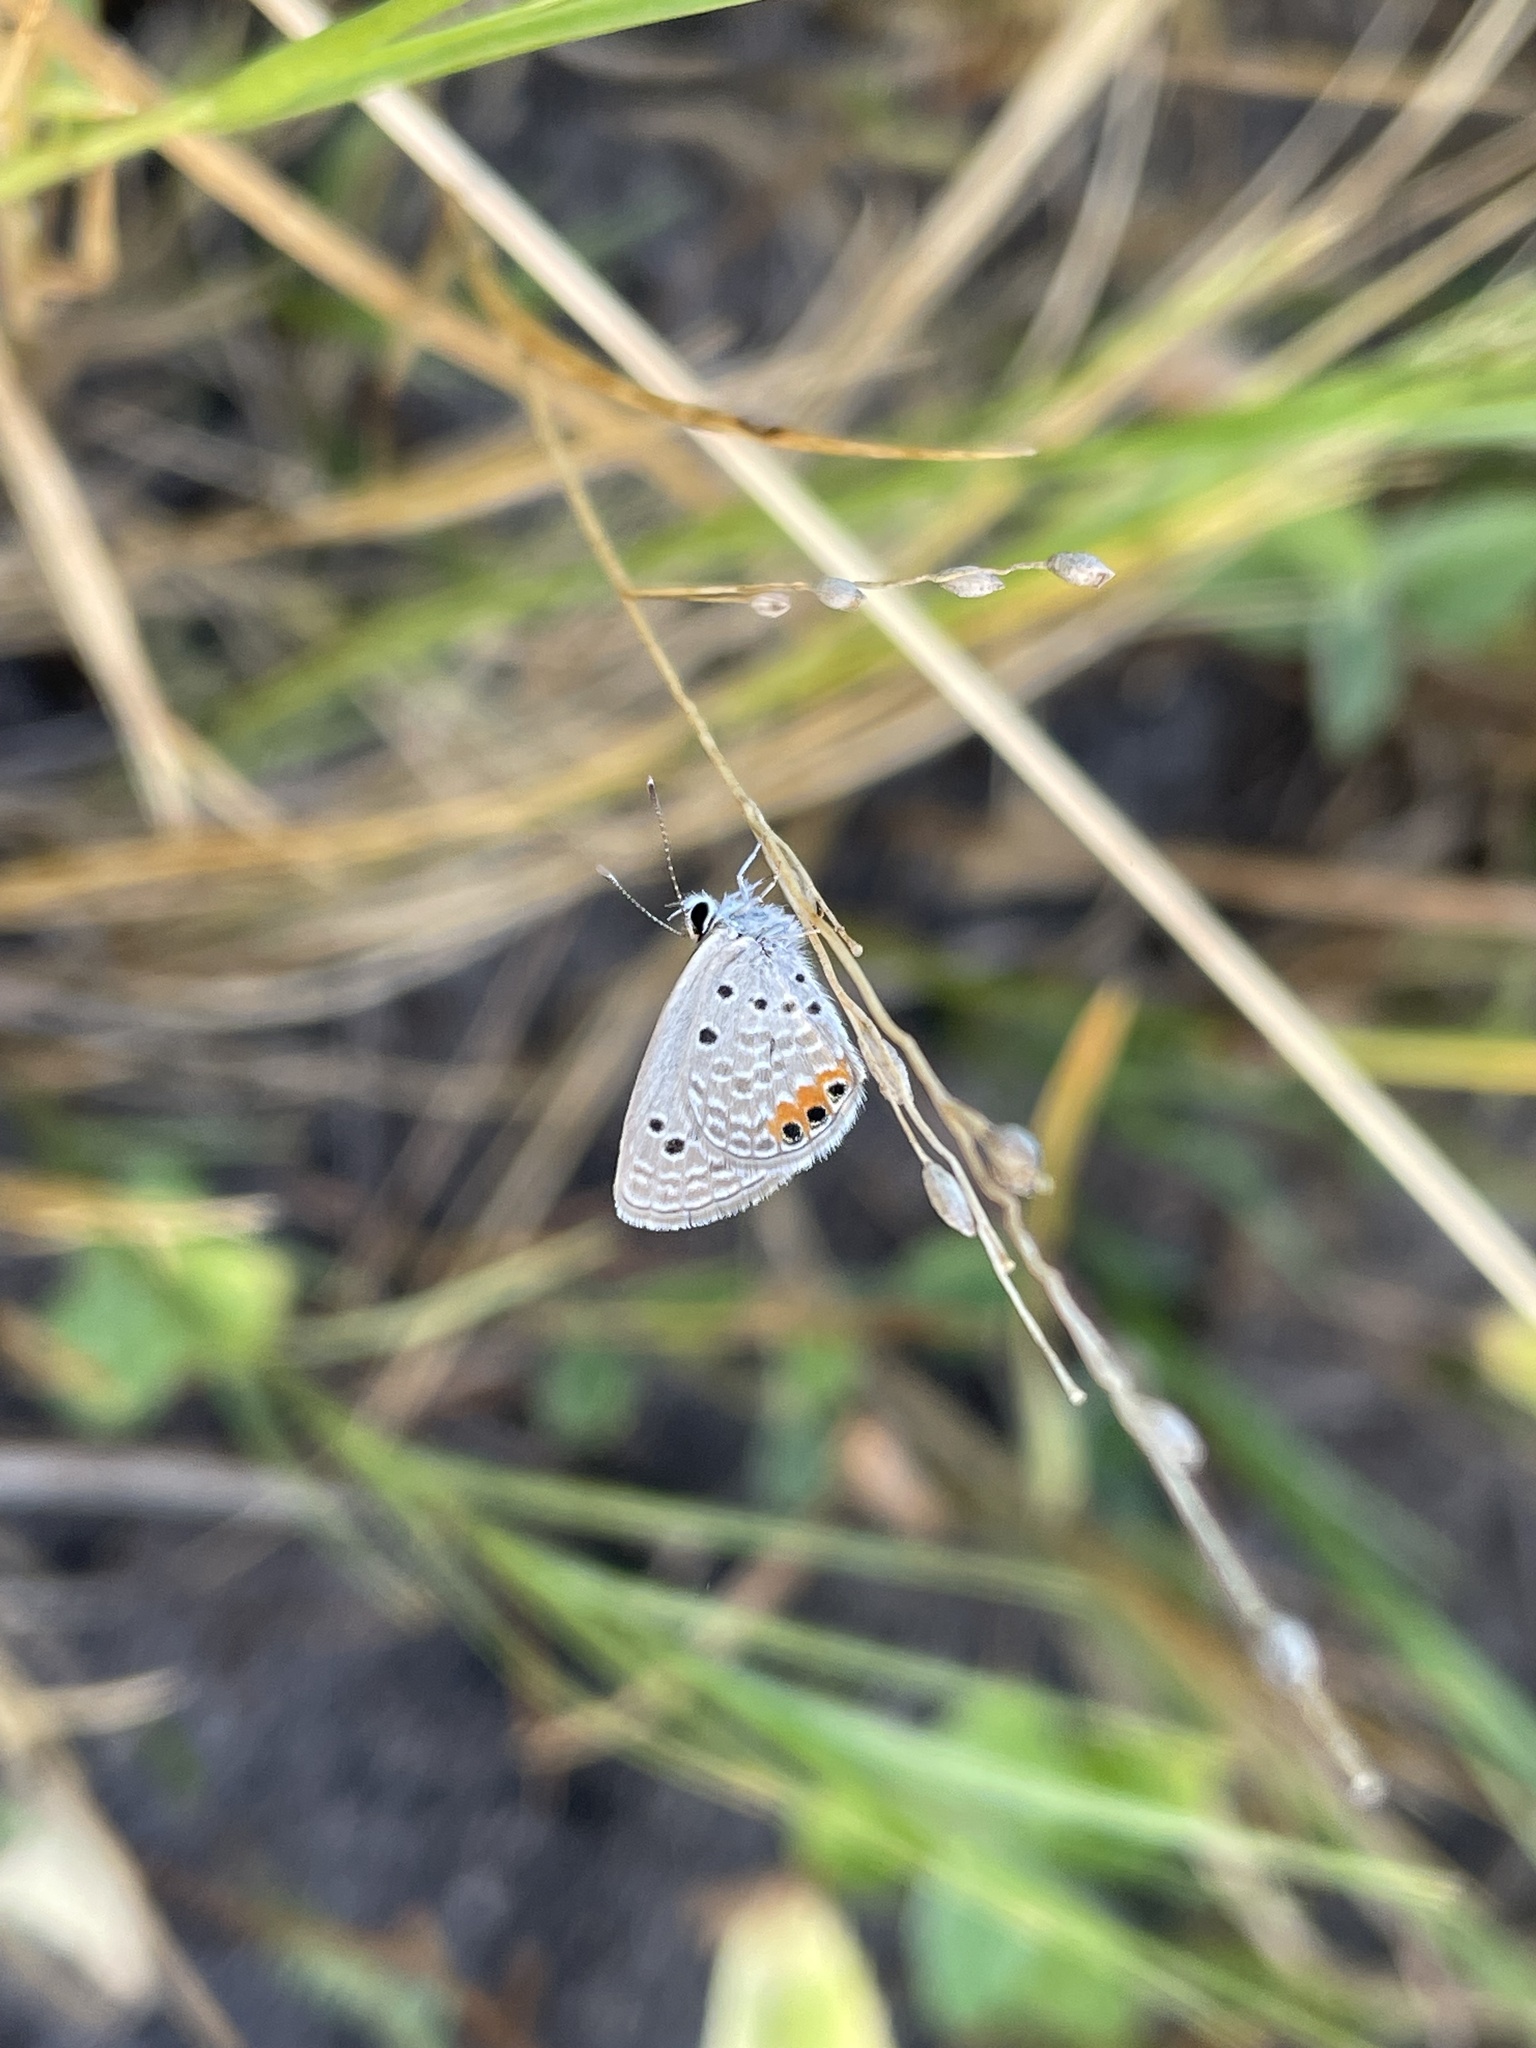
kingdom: Animalia
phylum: Arthropoda
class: Insecta
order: Lepidoptera
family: Lycaenidae
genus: Freyeria
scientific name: Freyeria trochylus
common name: Grass jewel
